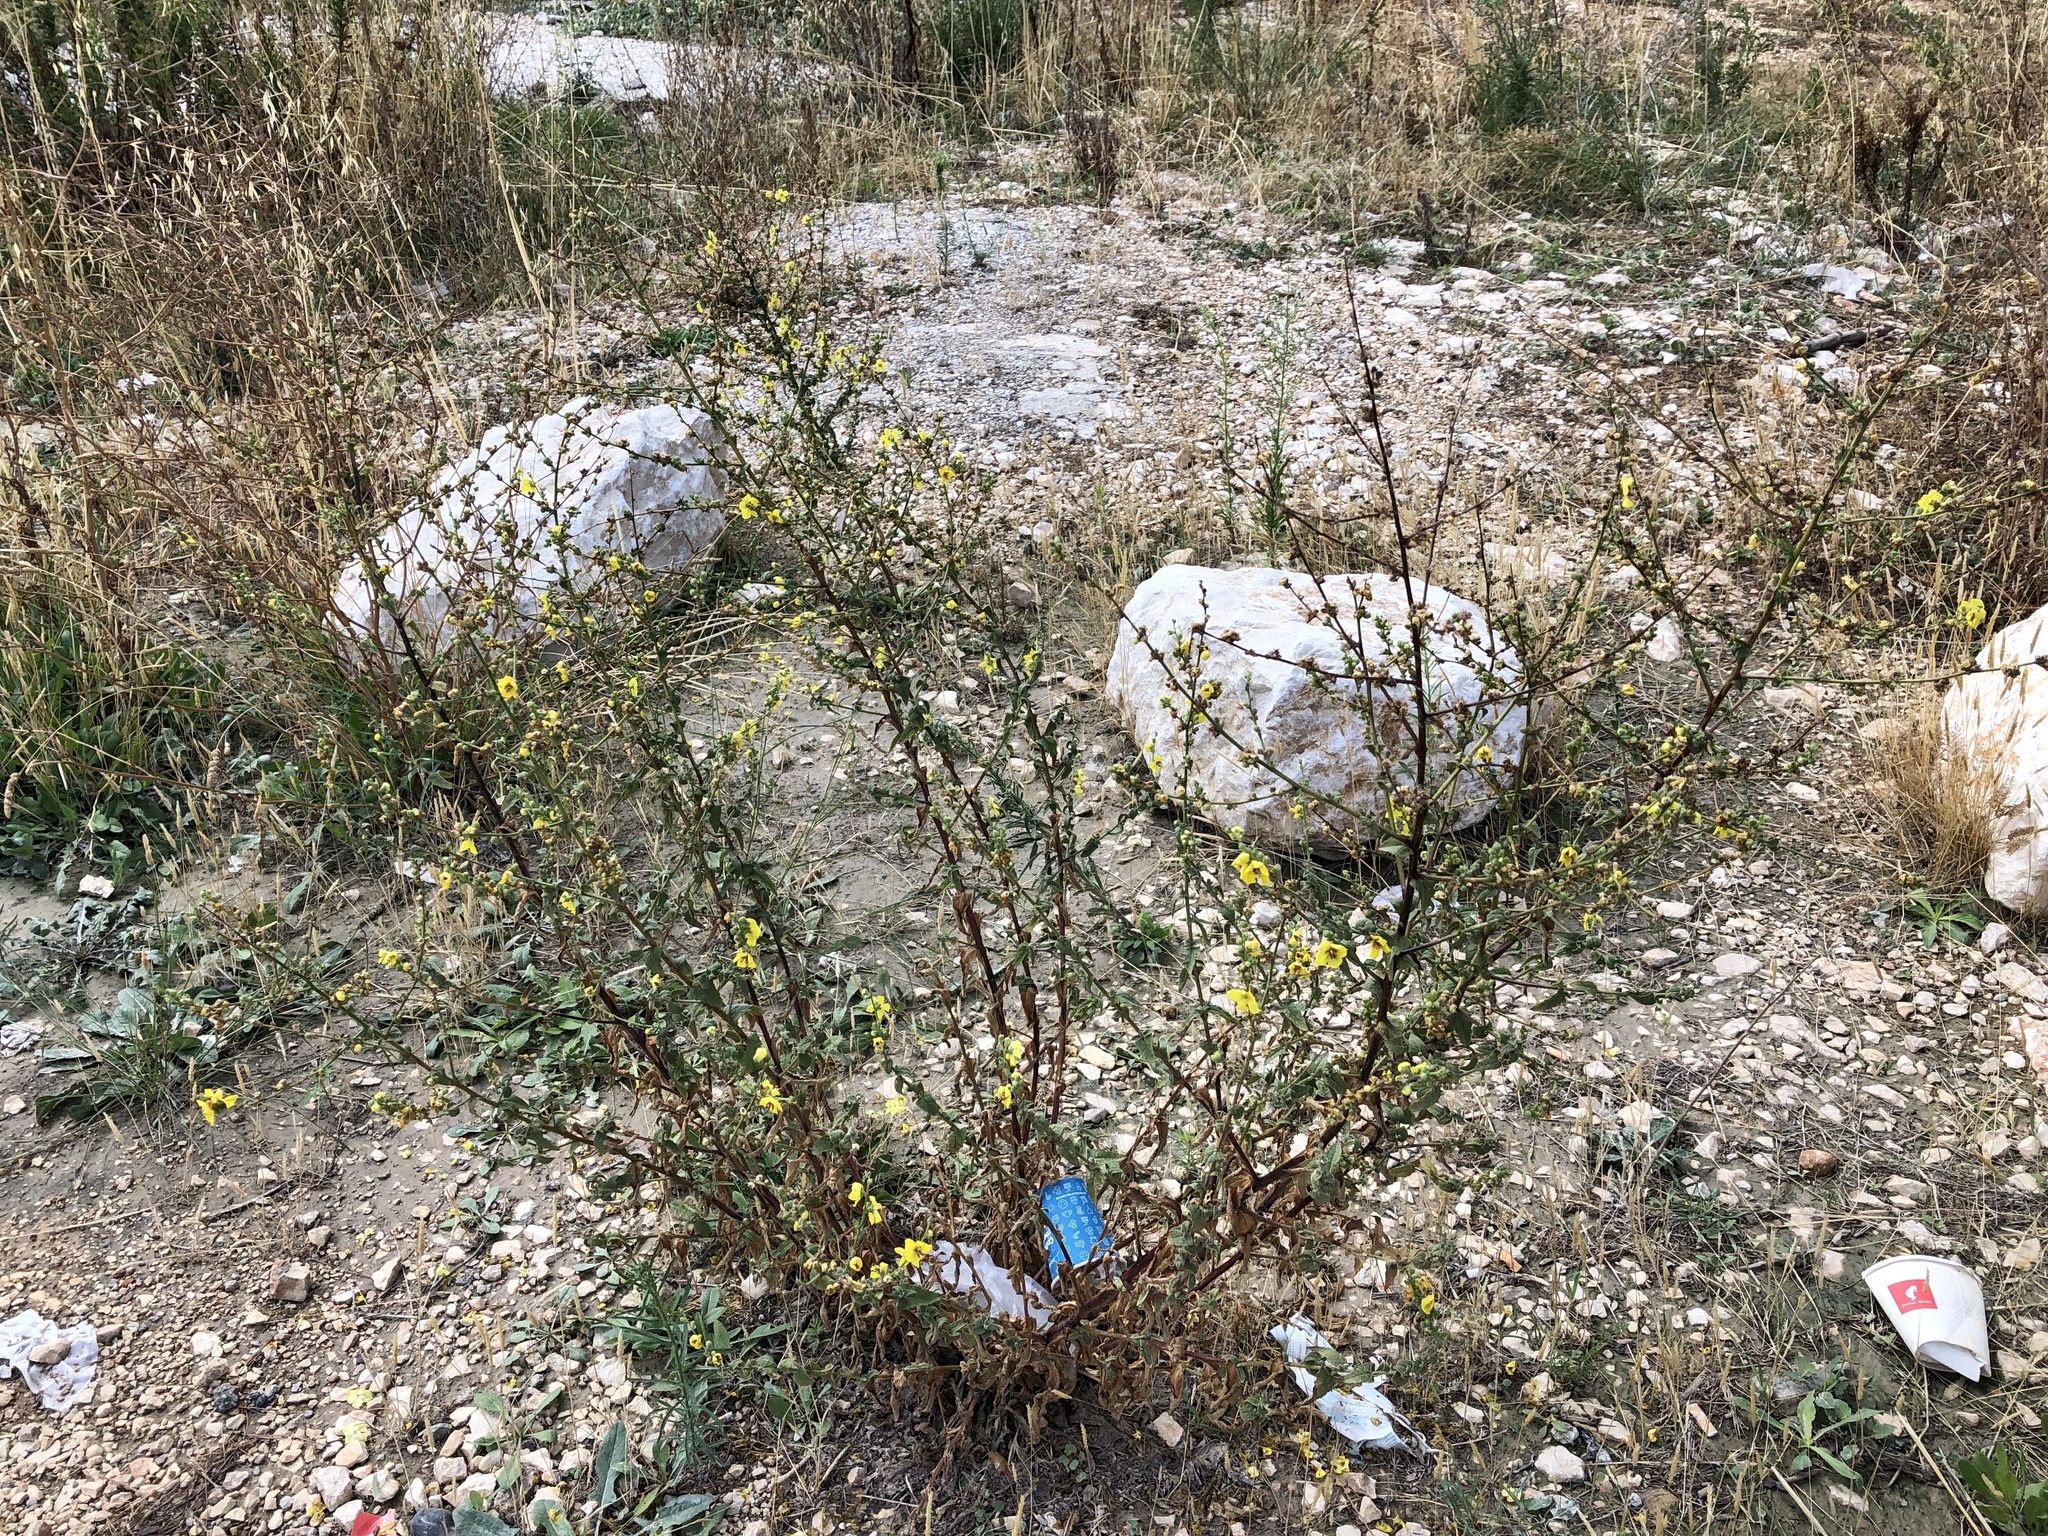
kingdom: Plantae
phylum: Tracheophyta
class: Magnoliopsida
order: Lamiales
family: Scrophulariaceae
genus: Verbascum
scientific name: Verbascum sinuatum
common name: Wavyleaf mullein
